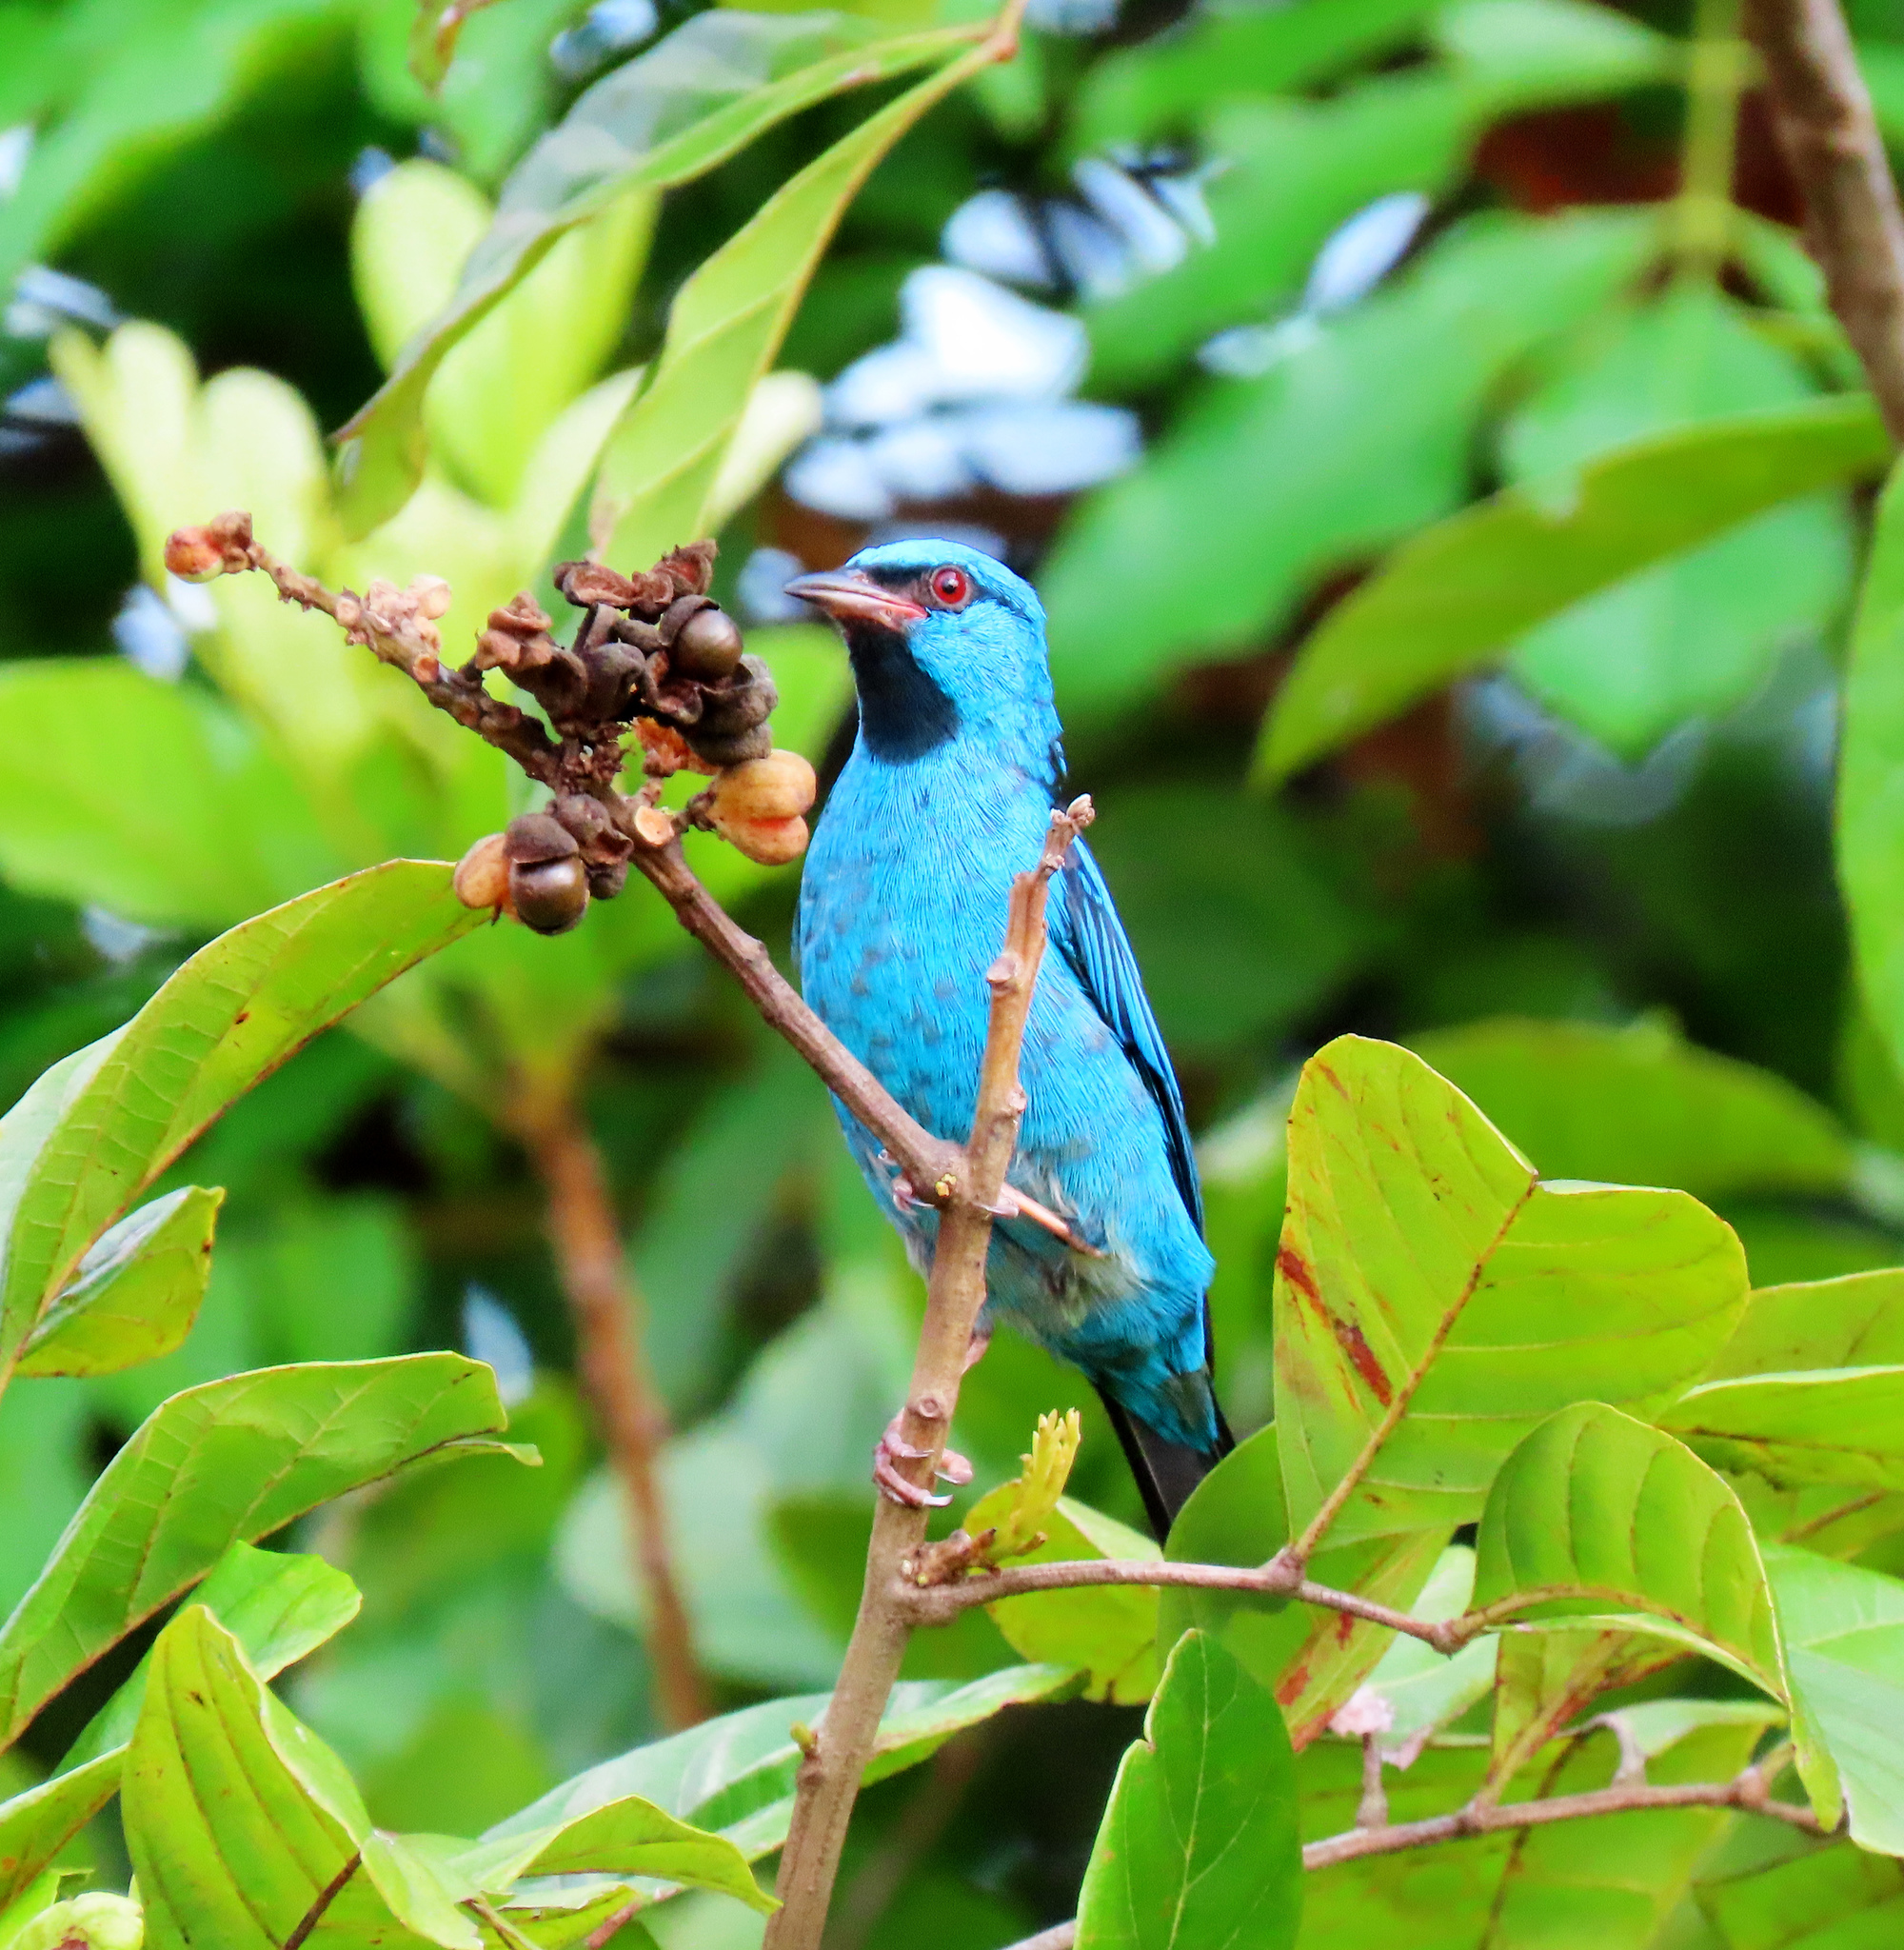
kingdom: Animalia
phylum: Chordata
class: Aves
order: Passeriformes
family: Thraupidae
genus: Dacnis
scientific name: Dacnis cayana
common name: Blue dacnis
